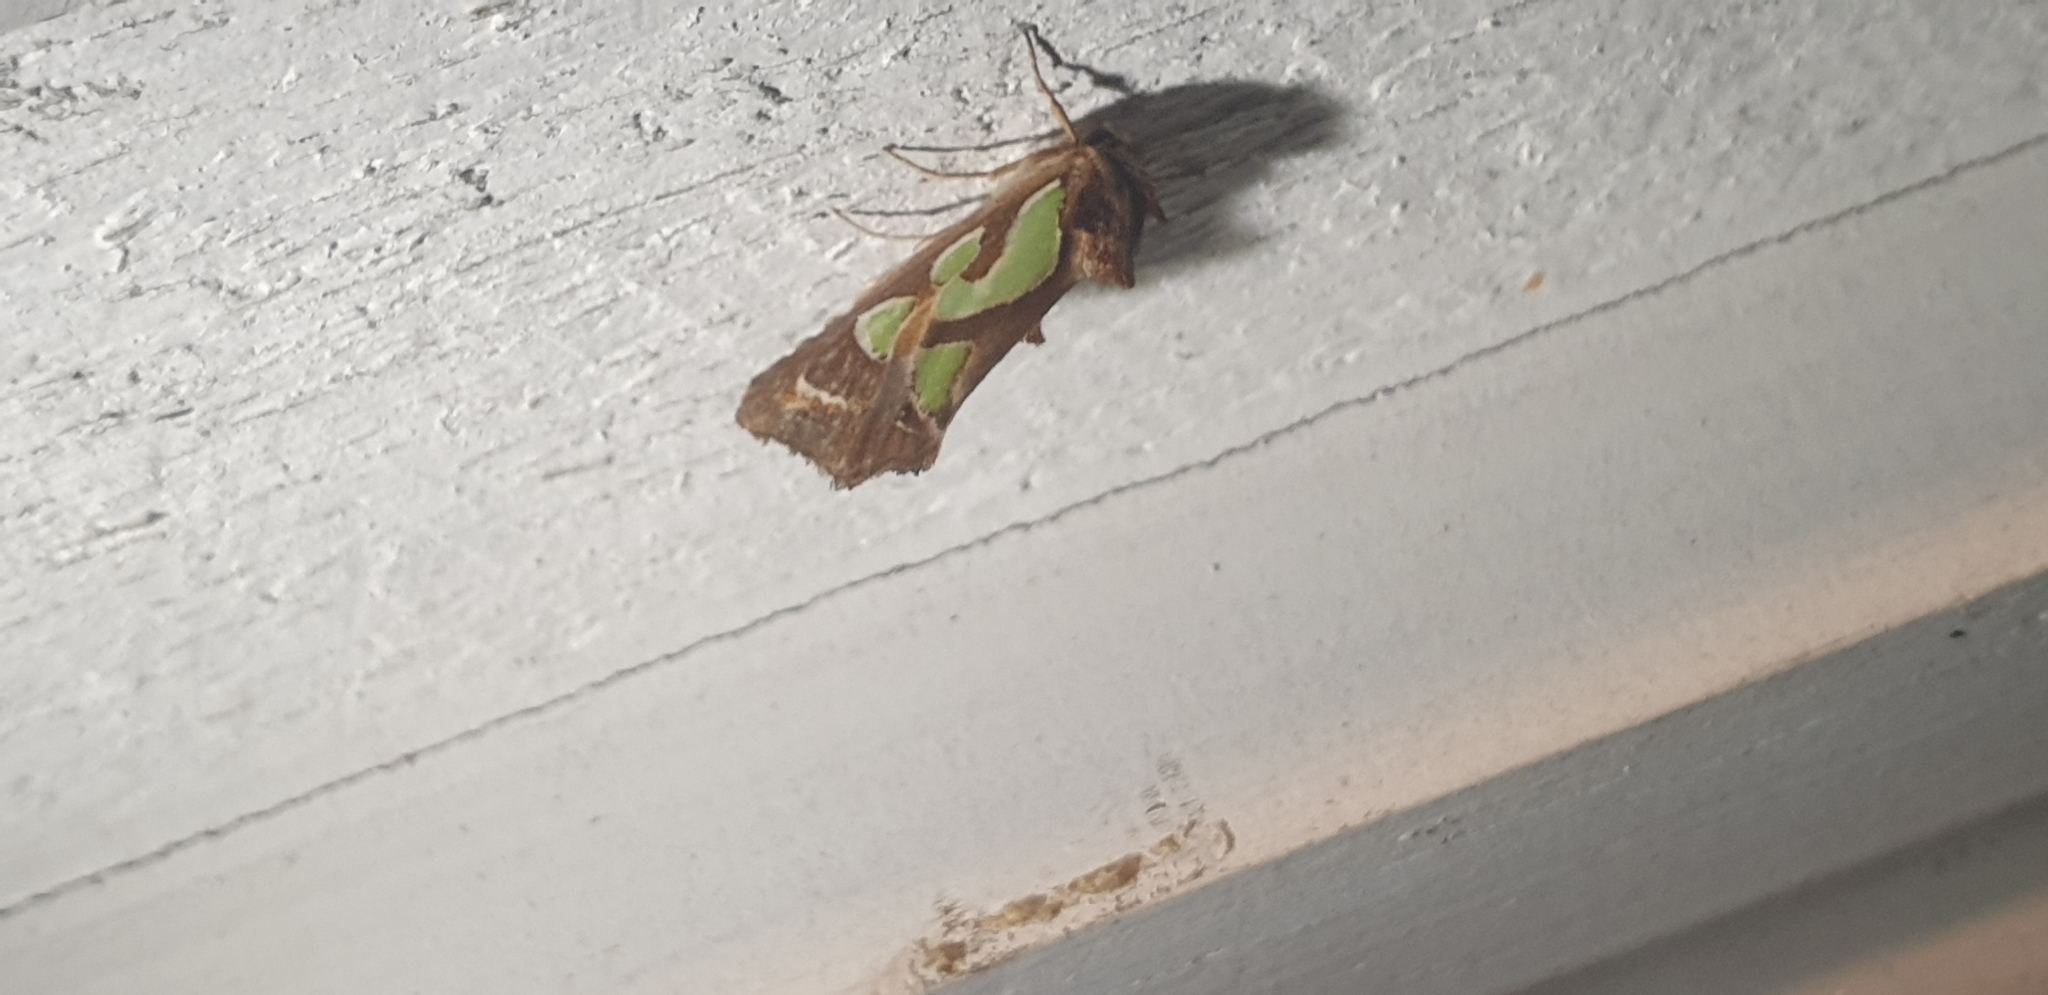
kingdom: Animalia
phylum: Arthropoda
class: Insecta
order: Lepidoptera
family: Noctuidae
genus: Cosmodes
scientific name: Cosmodes elegans
